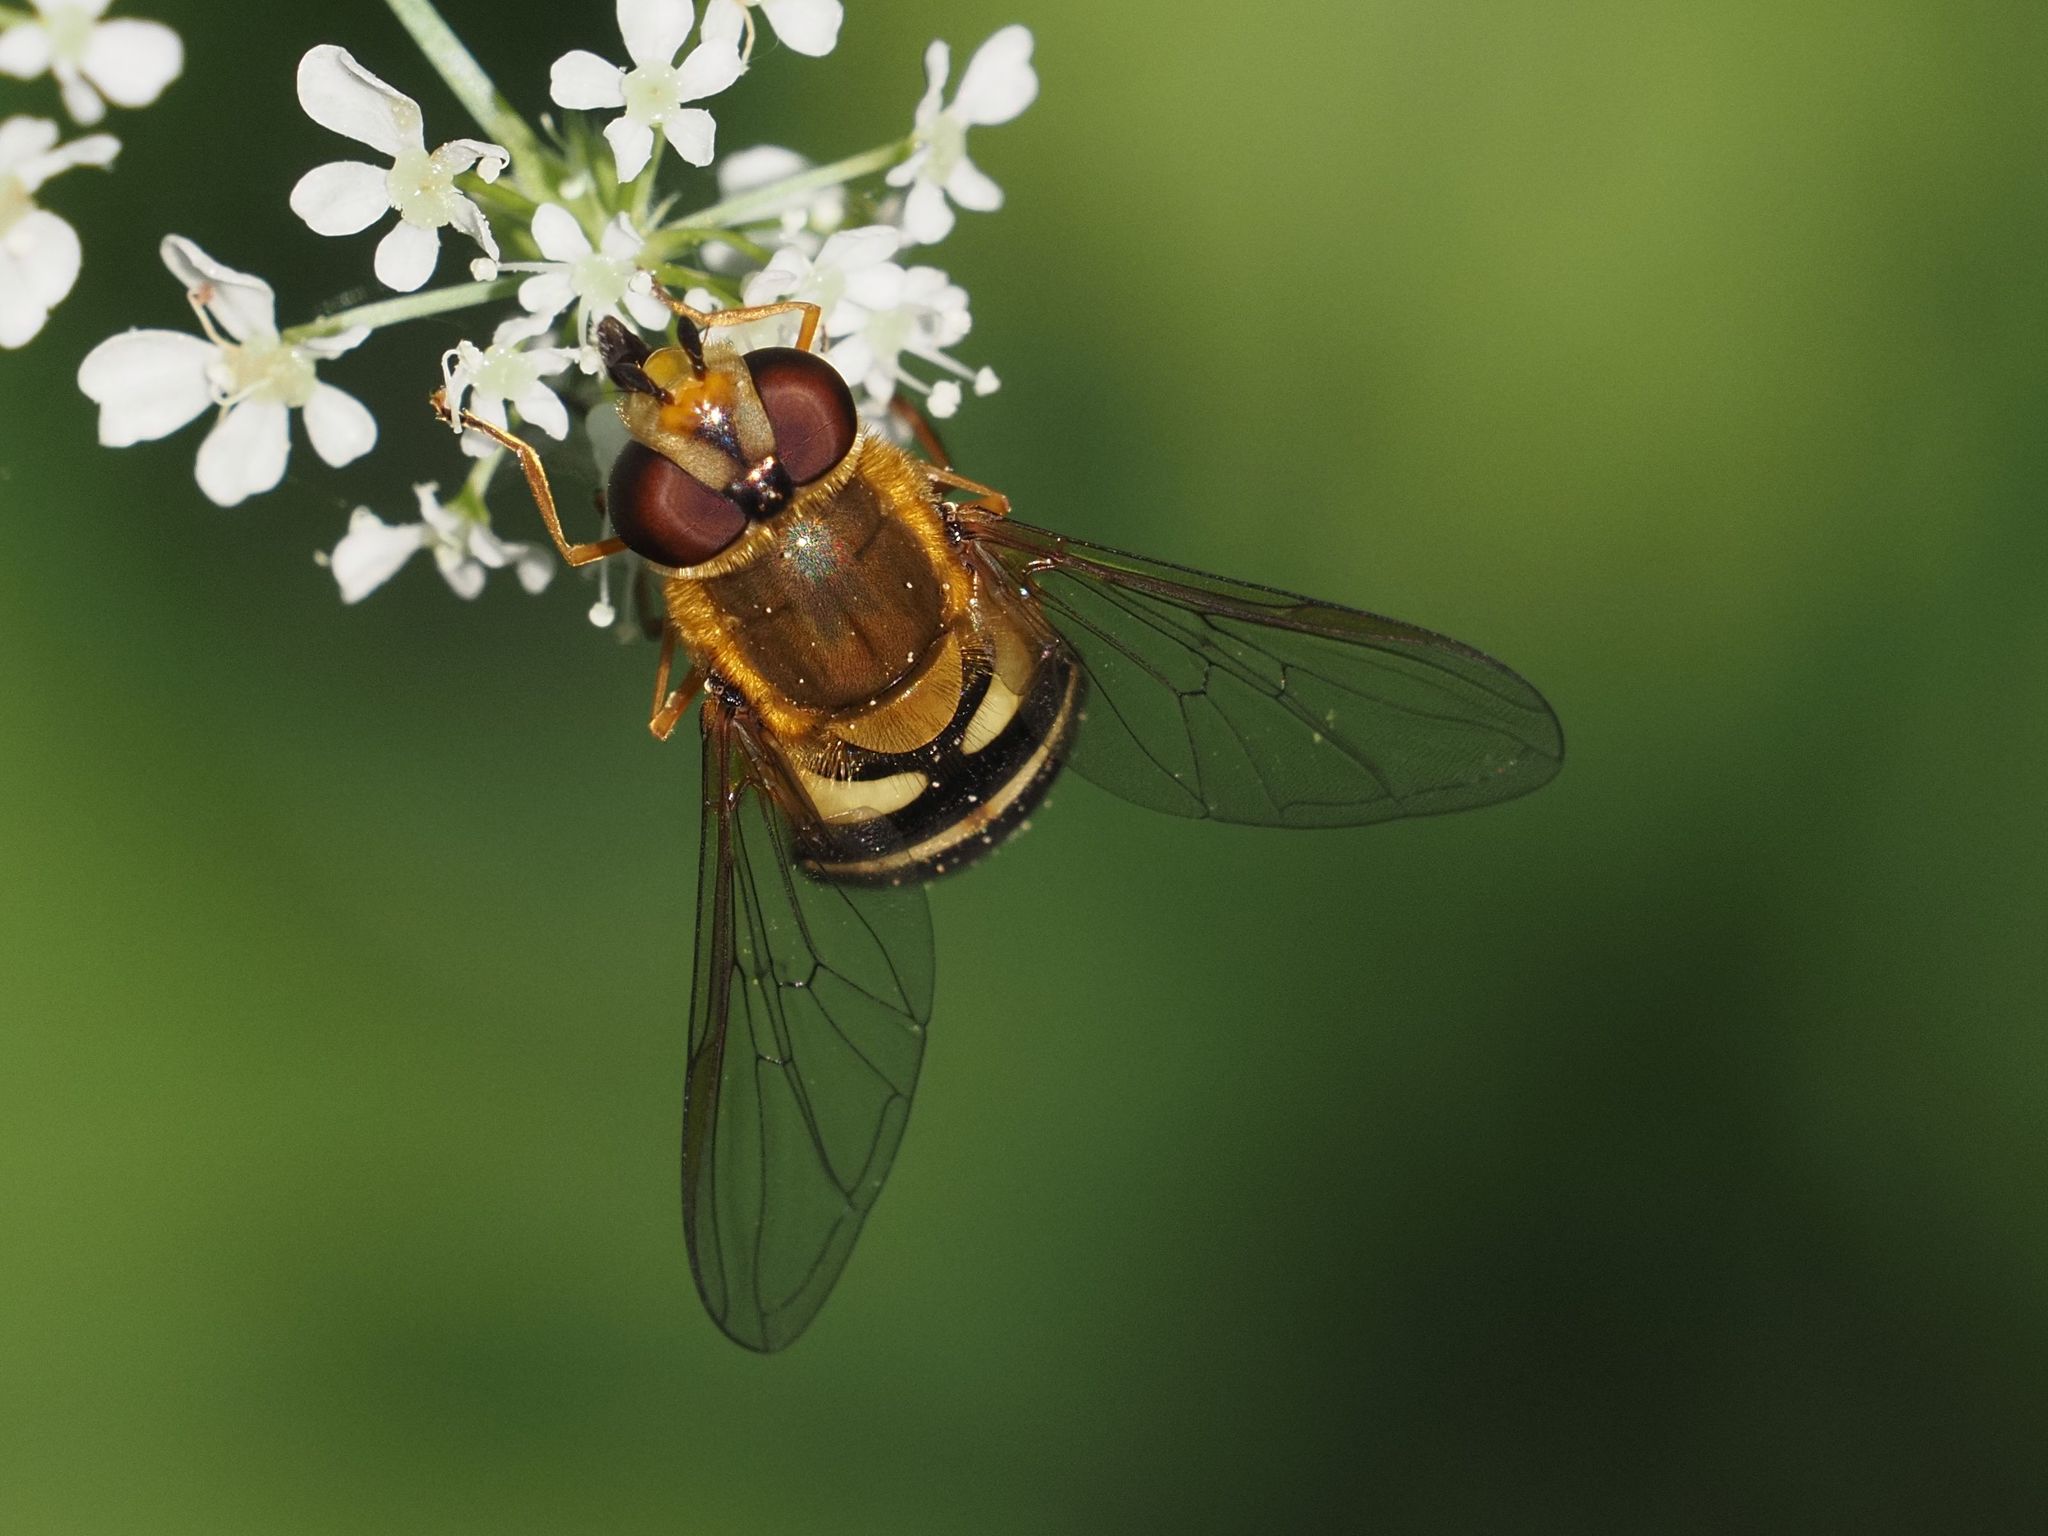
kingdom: Animalia
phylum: Arthropoda
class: Insecta
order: Diptera
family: Syrphidae
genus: Syrphus
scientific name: Syrphus ribesii
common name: Common flower fly
